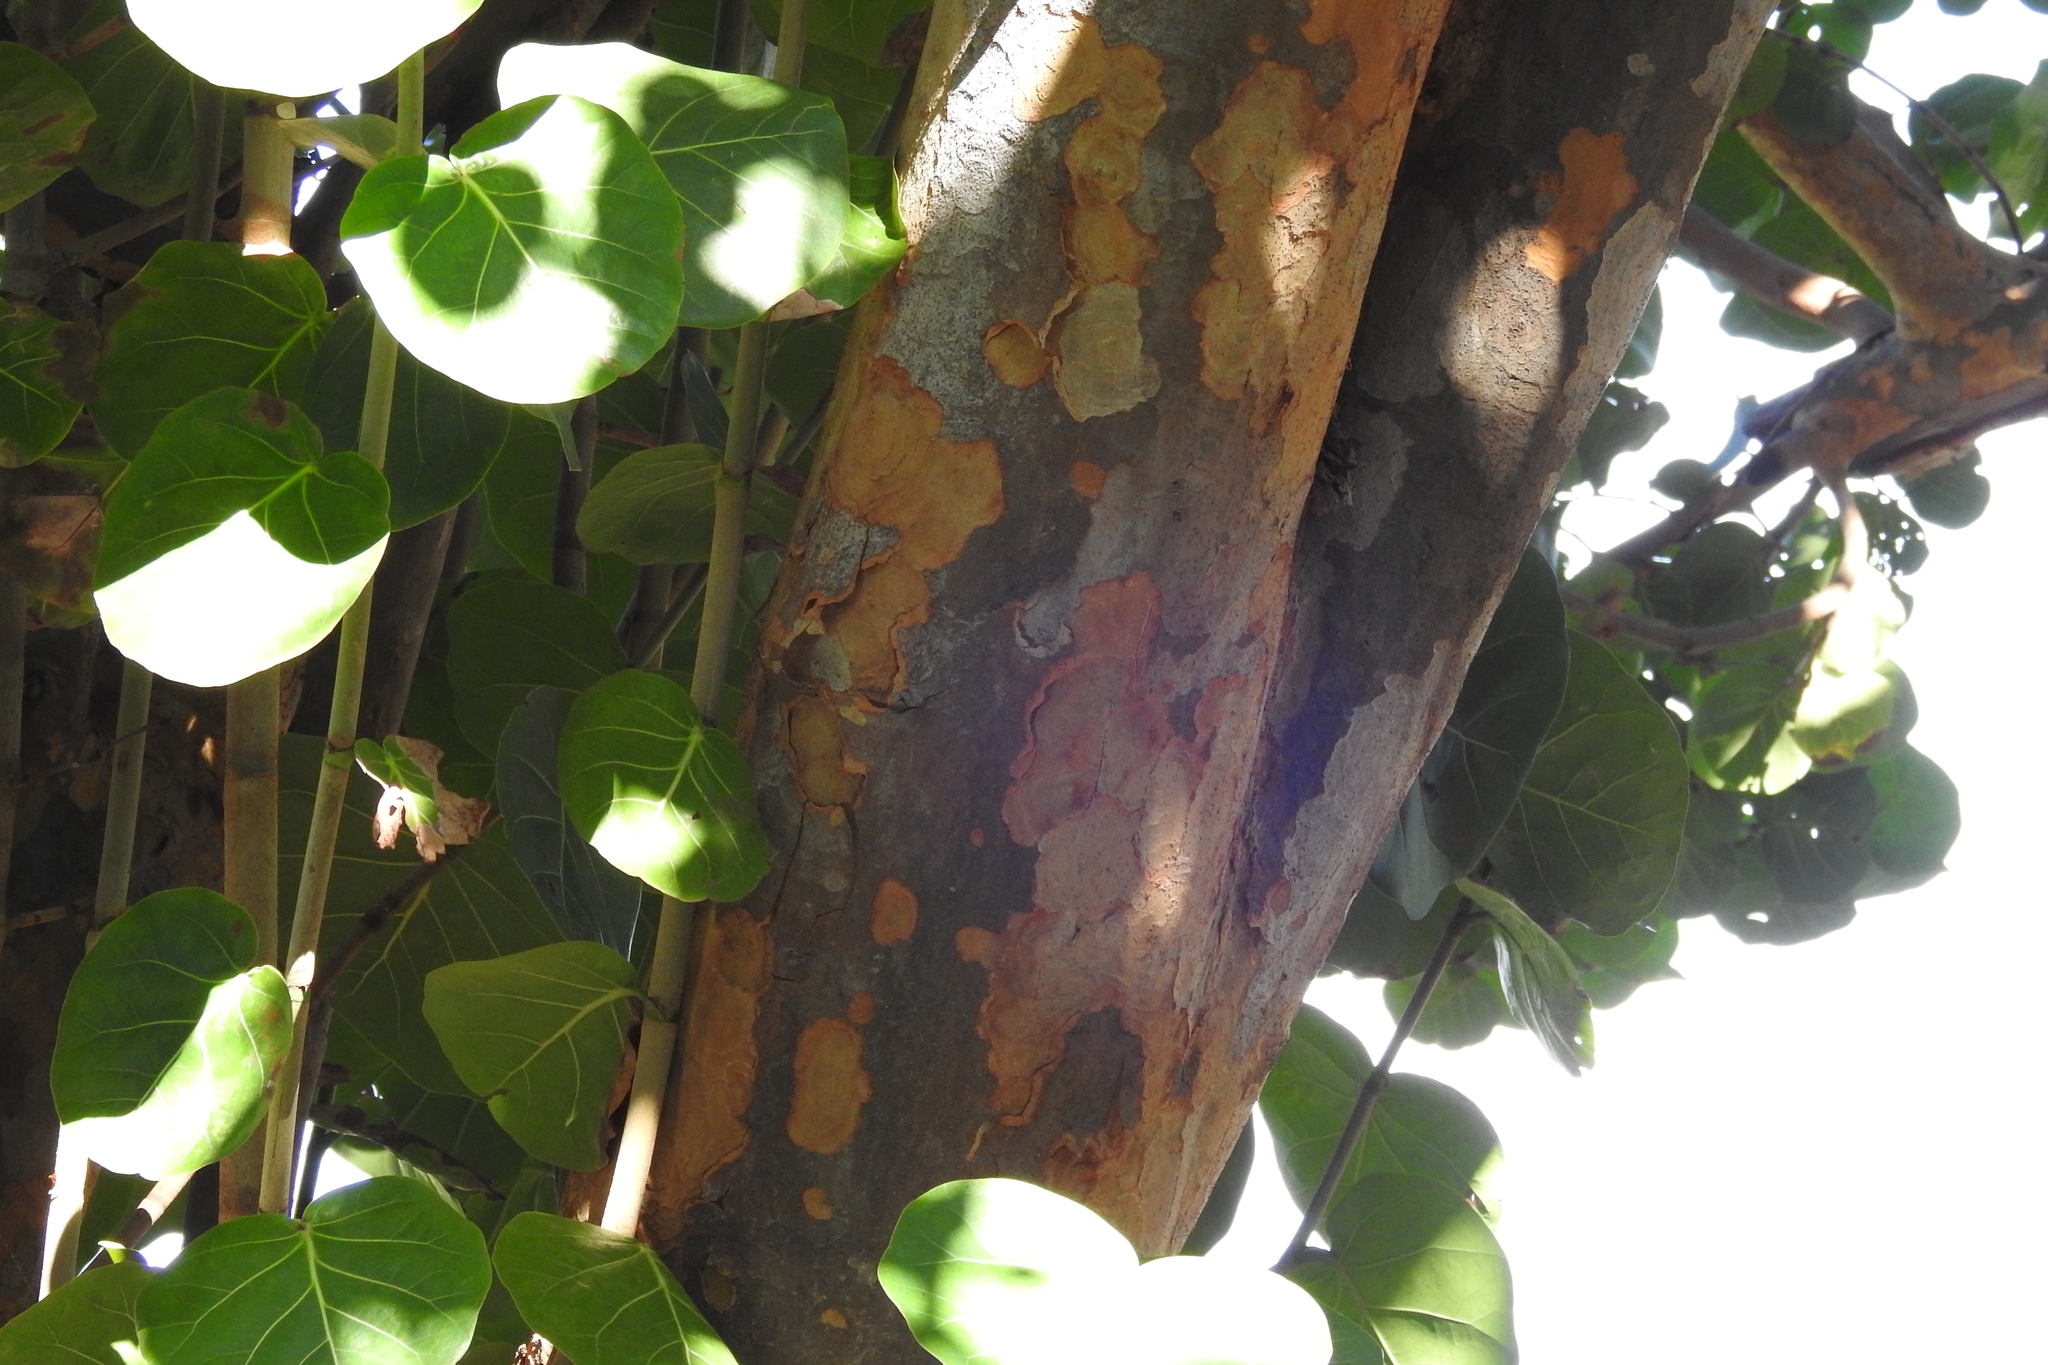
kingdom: Plantae
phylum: Tracheophyta
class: Magnoliopsida
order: Caryophyllales
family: Polygonaceae
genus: Coccoloba
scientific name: Coccoloba uvifera
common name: Seagrape
